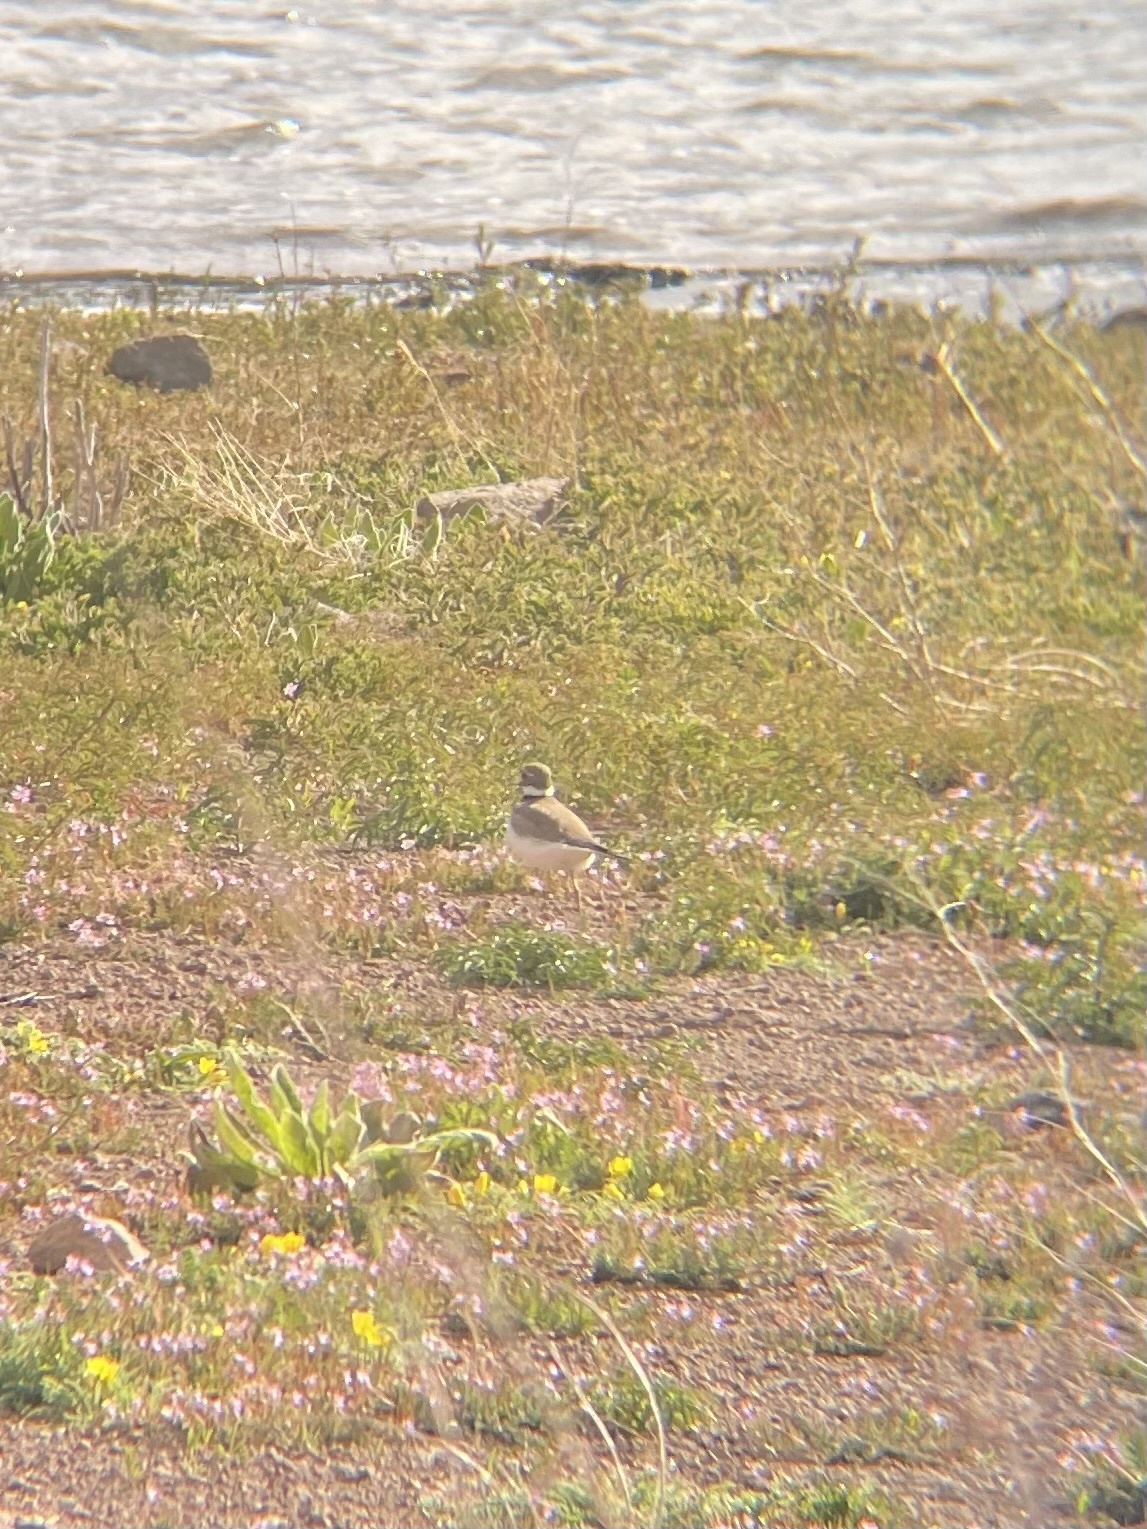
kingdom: Animalia
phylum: Chordata
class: Aves
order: Charadriiformes
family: Charadriidae
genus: Charadrius
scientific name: Charadrius vociferus
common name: Killdeer
